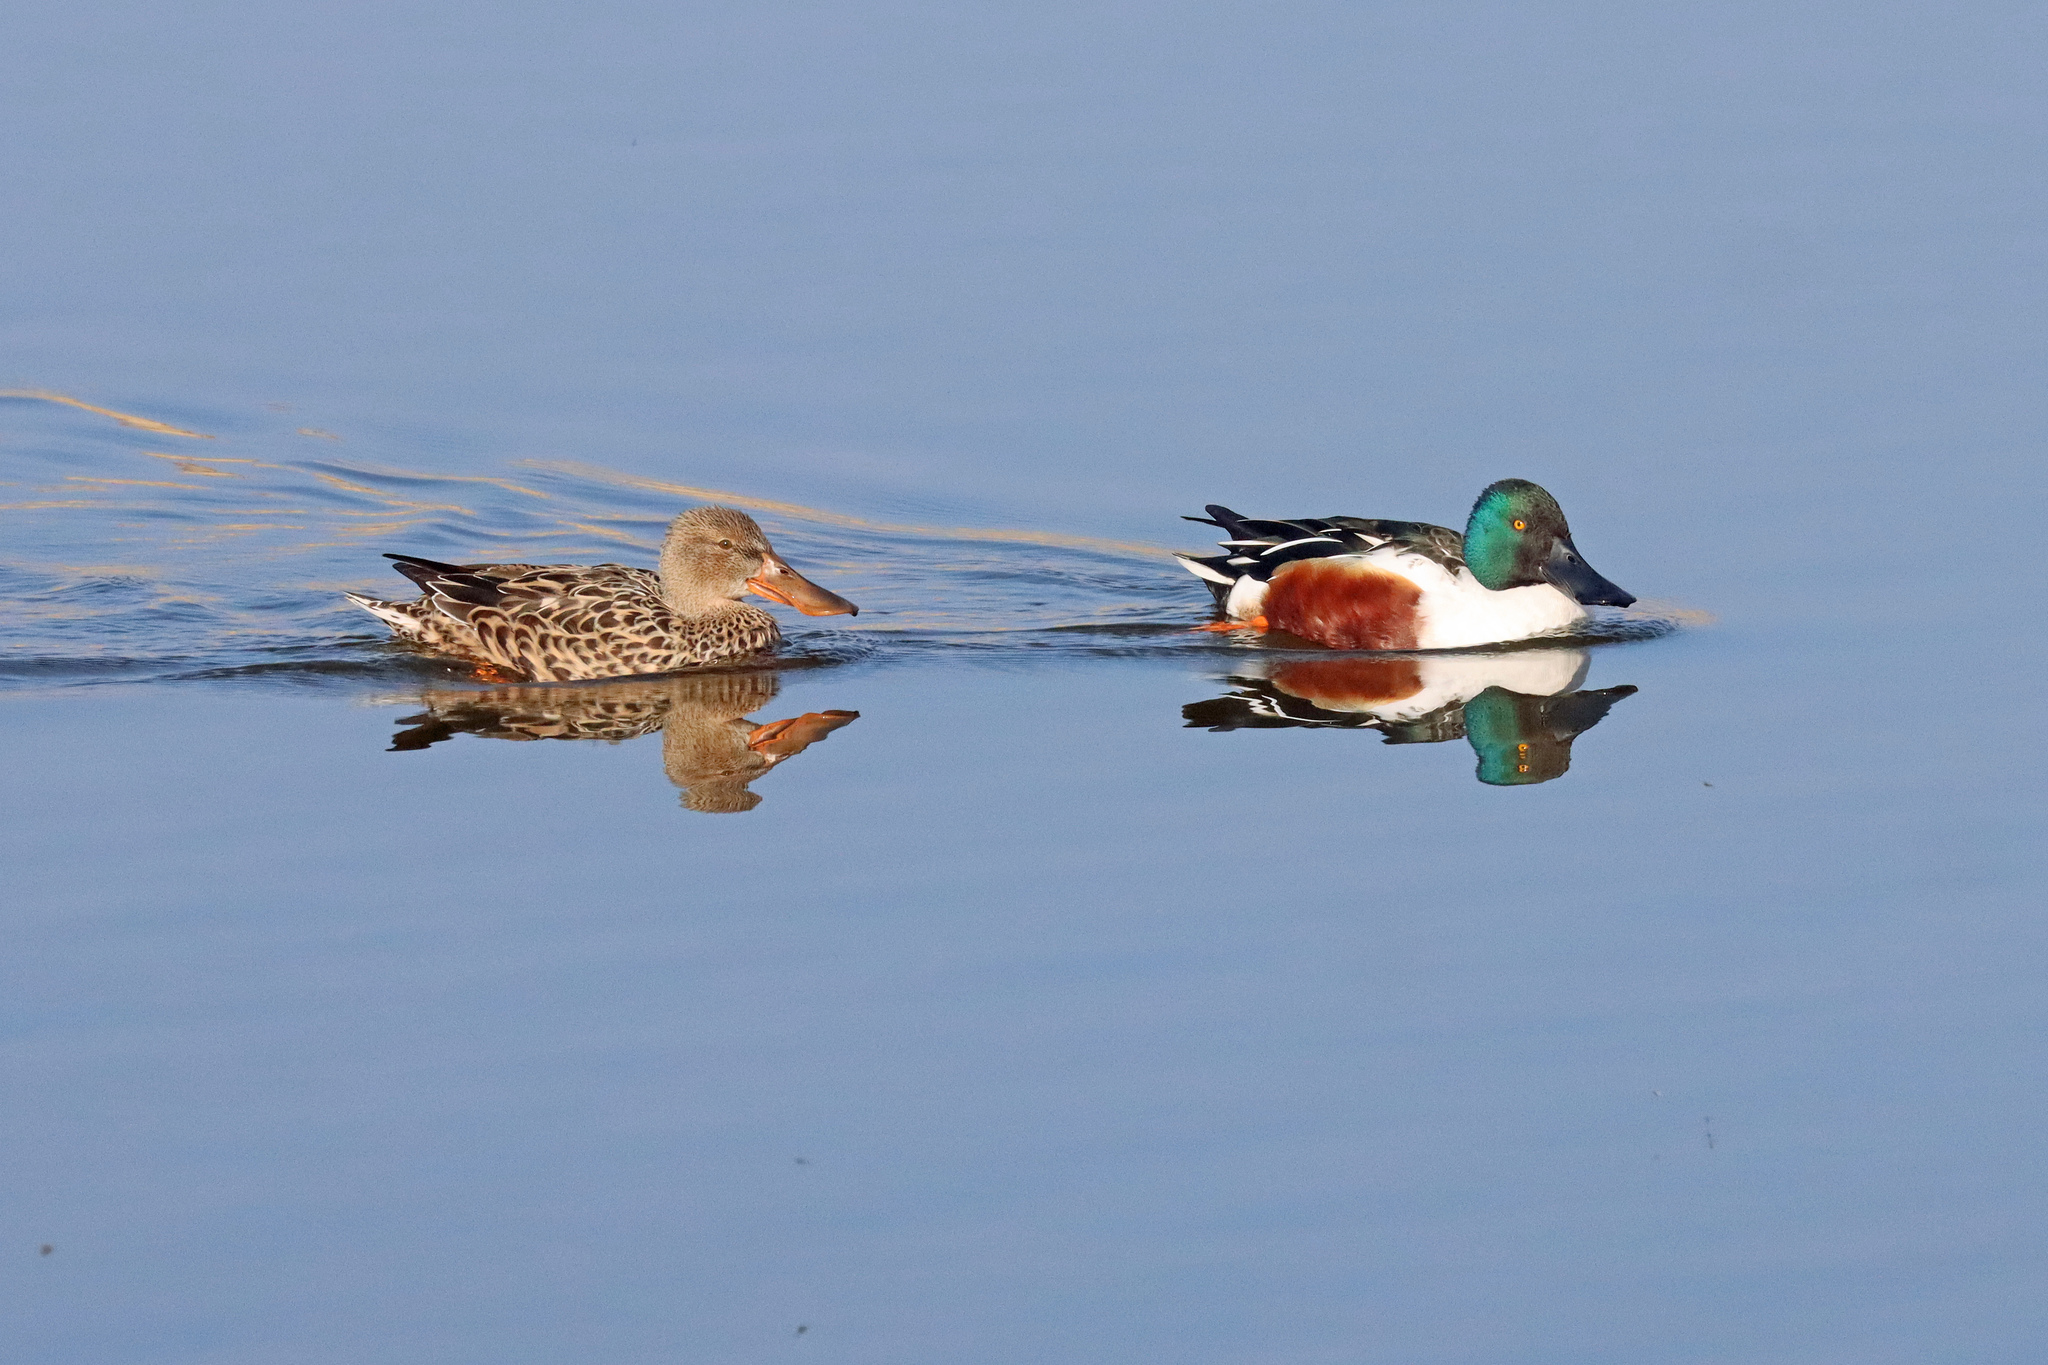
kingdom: Animalia
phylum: Chordata
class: Aves
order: Anseriformes
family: Anatidae
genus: Spatula
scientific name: Spatula clypeata
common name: Northern shoveler
